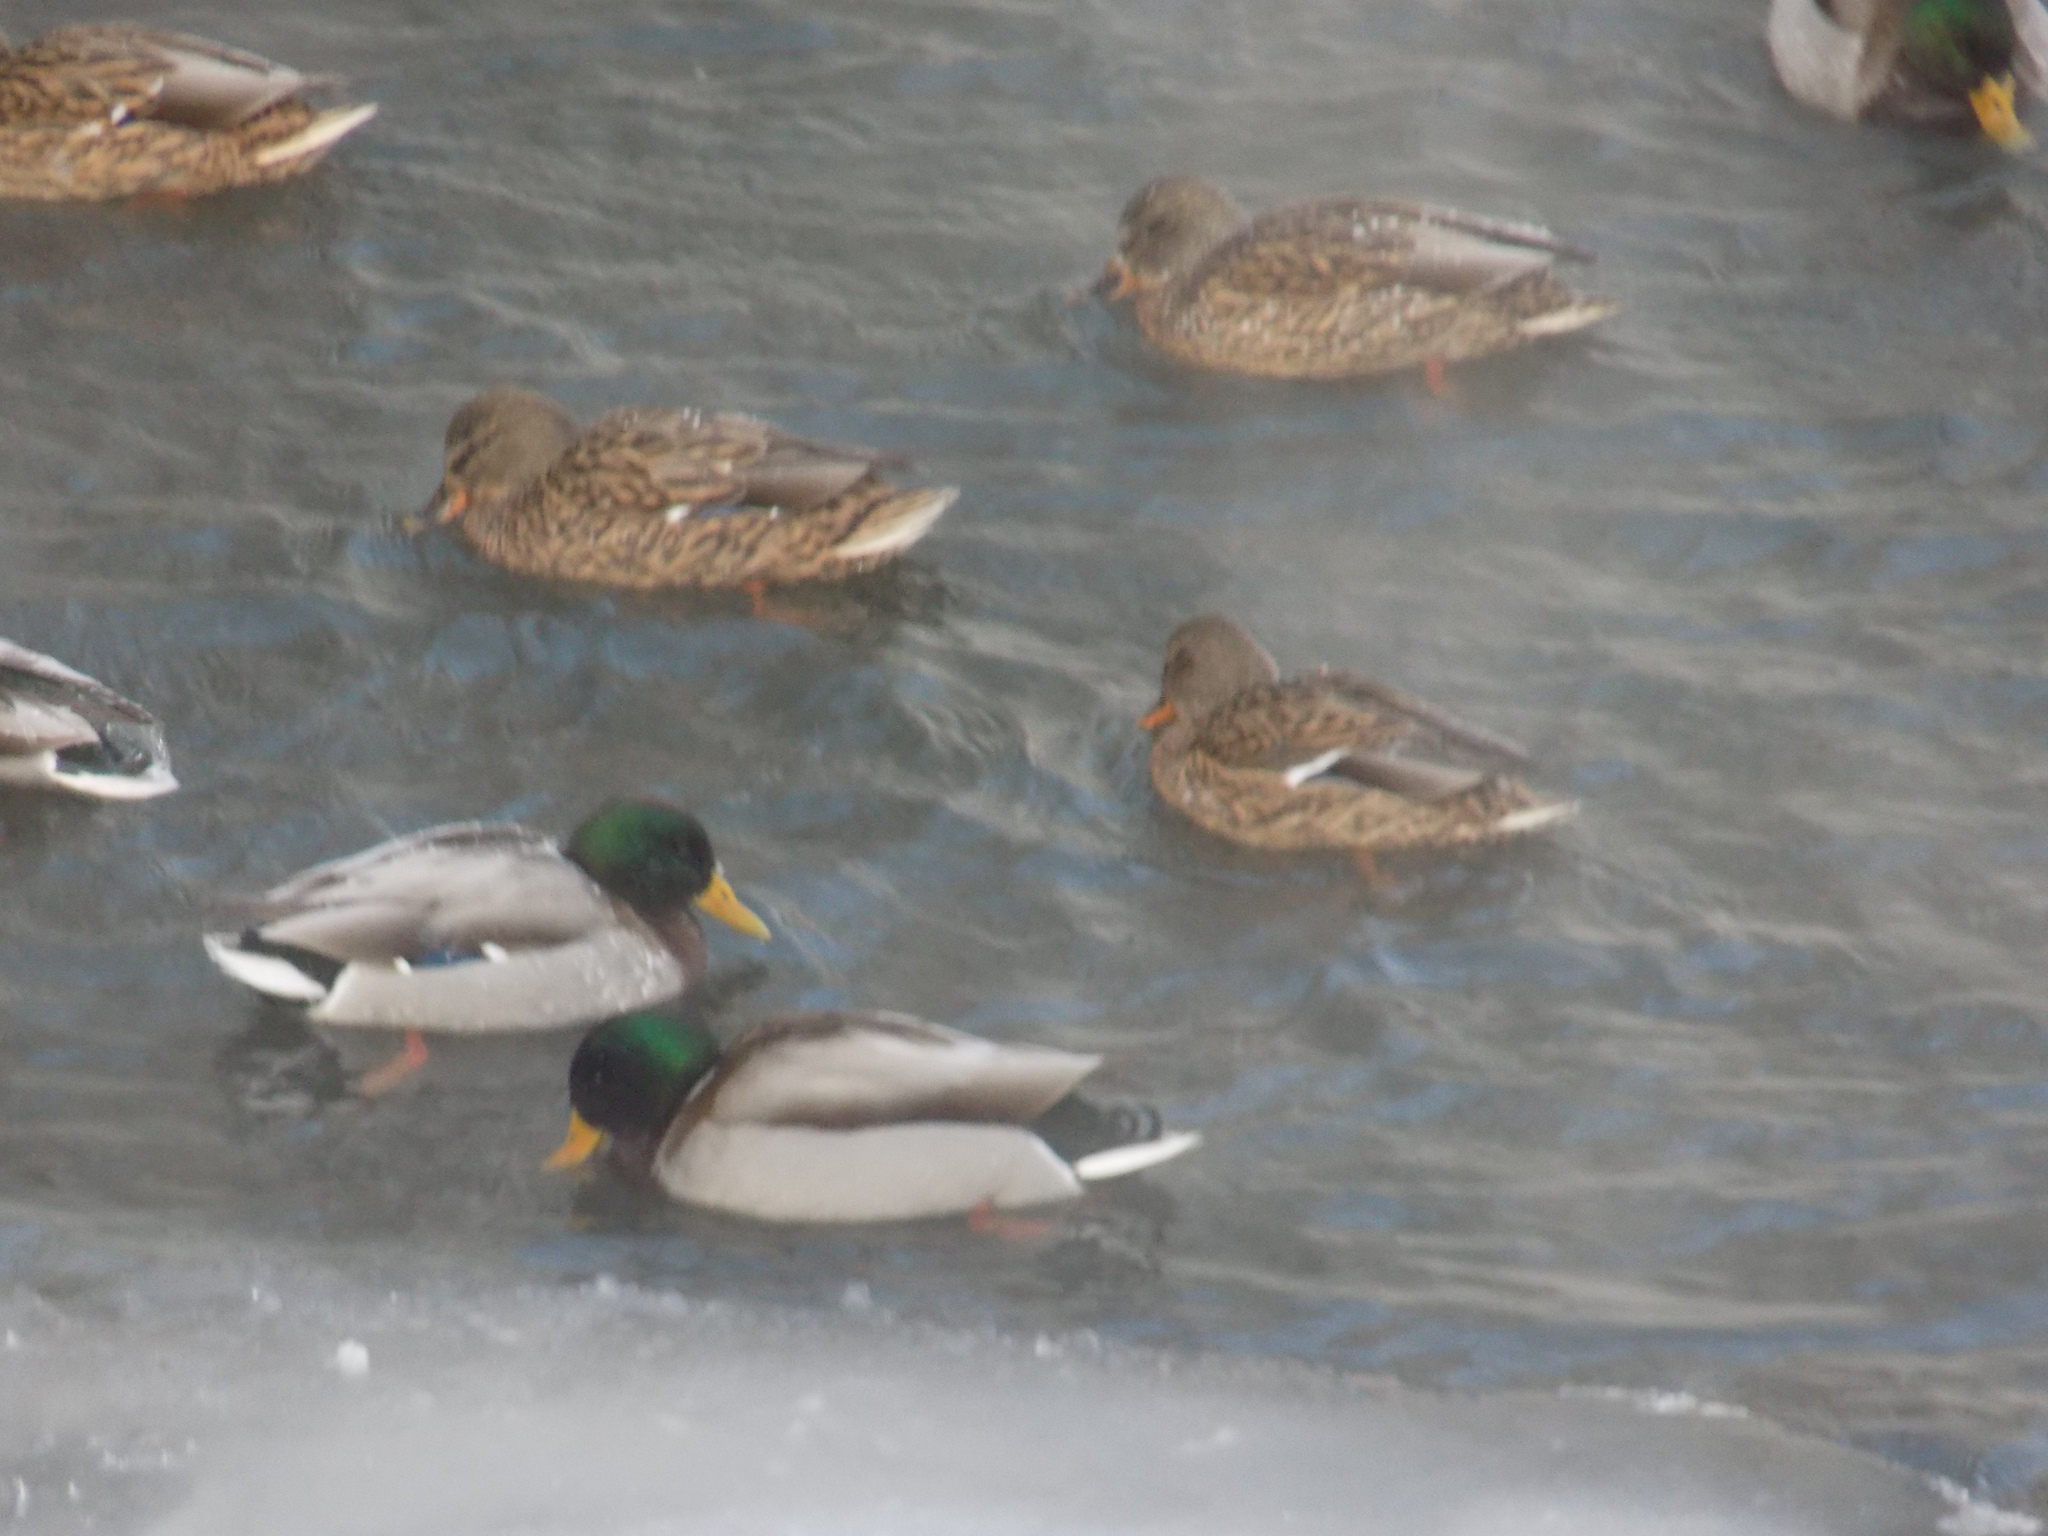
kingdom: Animalia
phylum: Chordata
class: Aves
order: Anseriformes
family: Anatidae
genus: Anas
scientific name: Anas platyrhynchos
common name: Mallard
